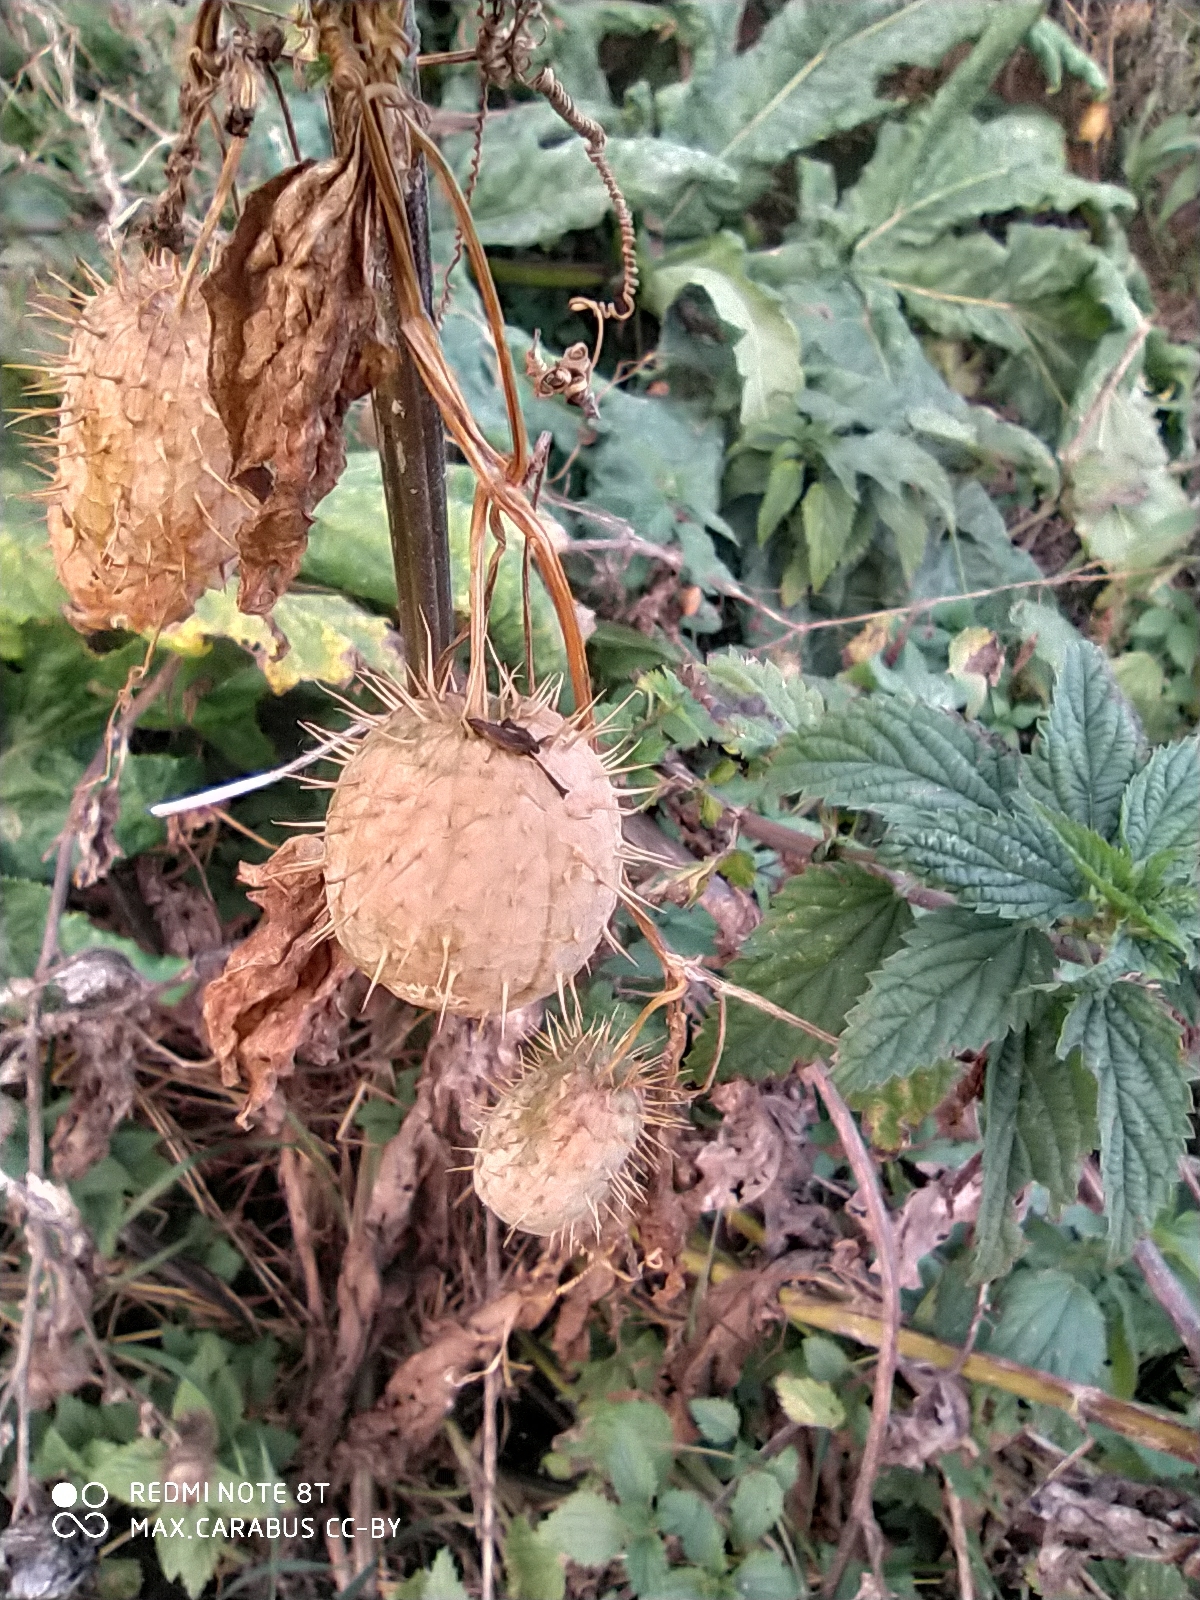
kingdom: Plantae
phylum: Tracheophyta
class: Magnoliopsida
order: Cucurbitales
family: Cucurbitaceae
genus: Echinocystis
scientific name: Echinocystis lobata
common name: Wild cucumber
